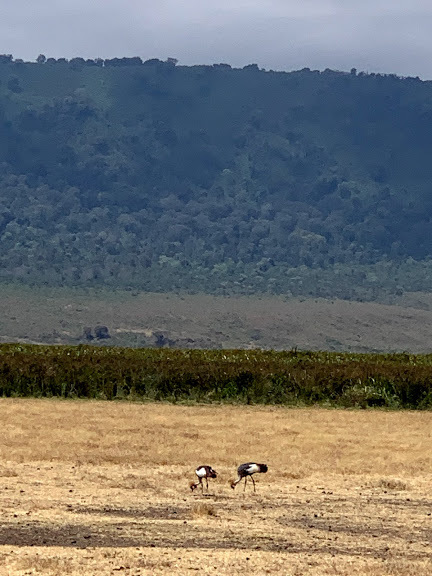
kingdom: Animalia
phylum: Chordata
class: Aves
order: Gruiformes
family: Gruidae
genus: Balearica
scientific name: Balearica regulorum
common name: Grey crowned crane
